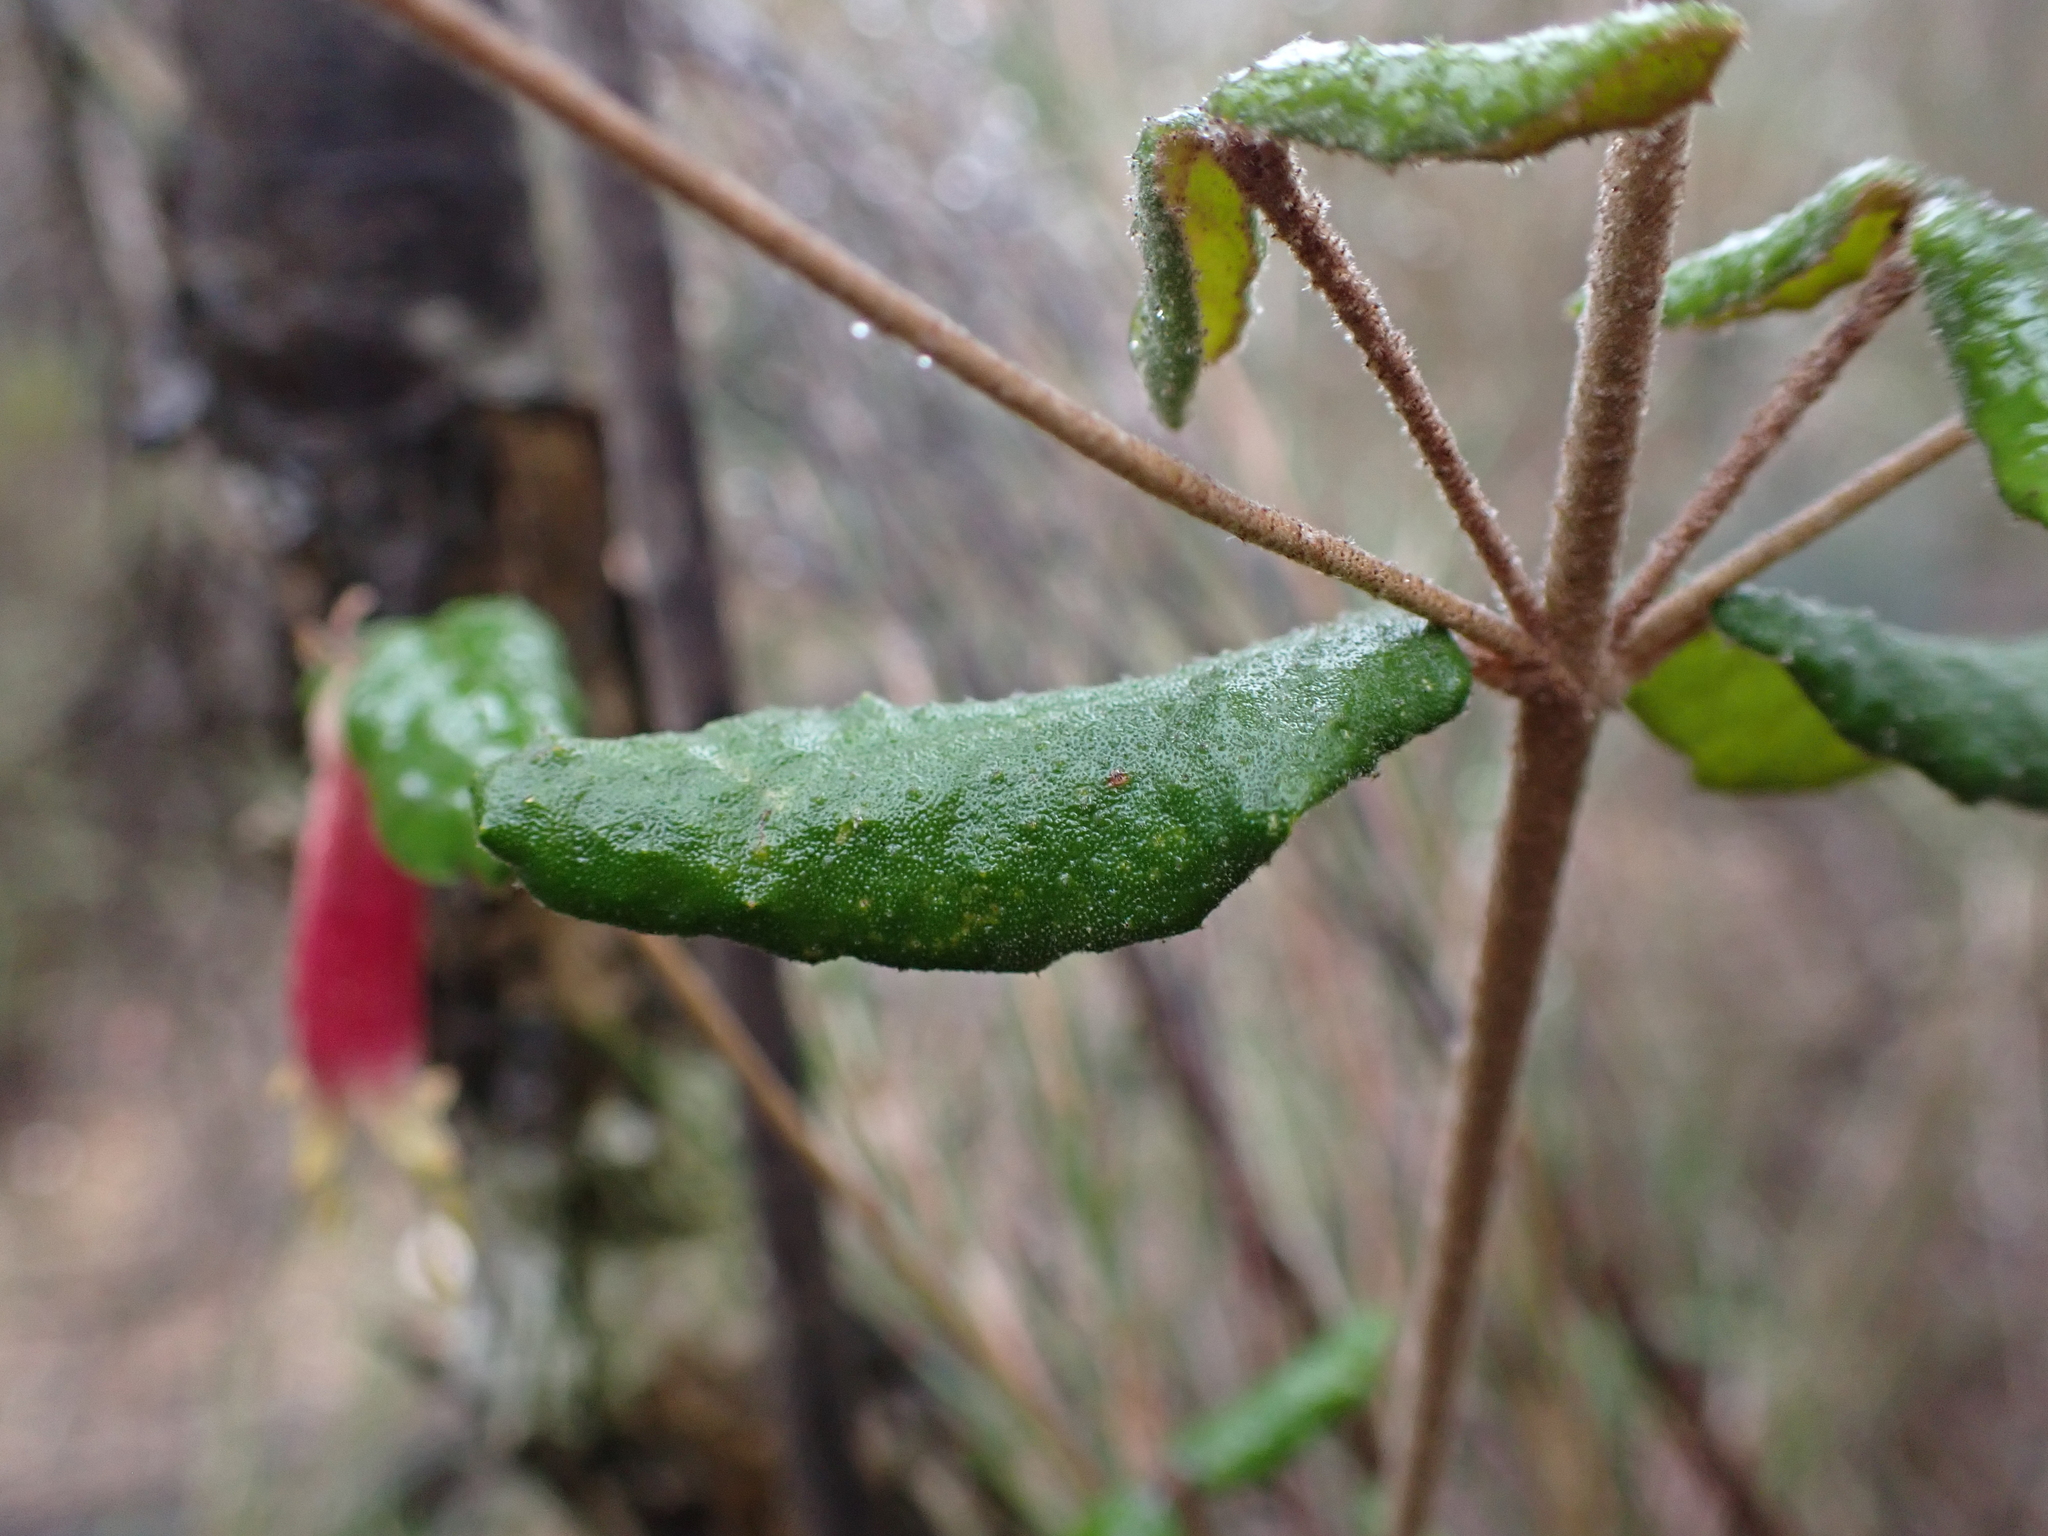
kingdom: Plantae
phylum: Tracheophyta
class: Magnoliopsida
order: Sapindales
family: Rutaceae
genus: Correa
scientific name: Correa reflexa
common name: Common correa
